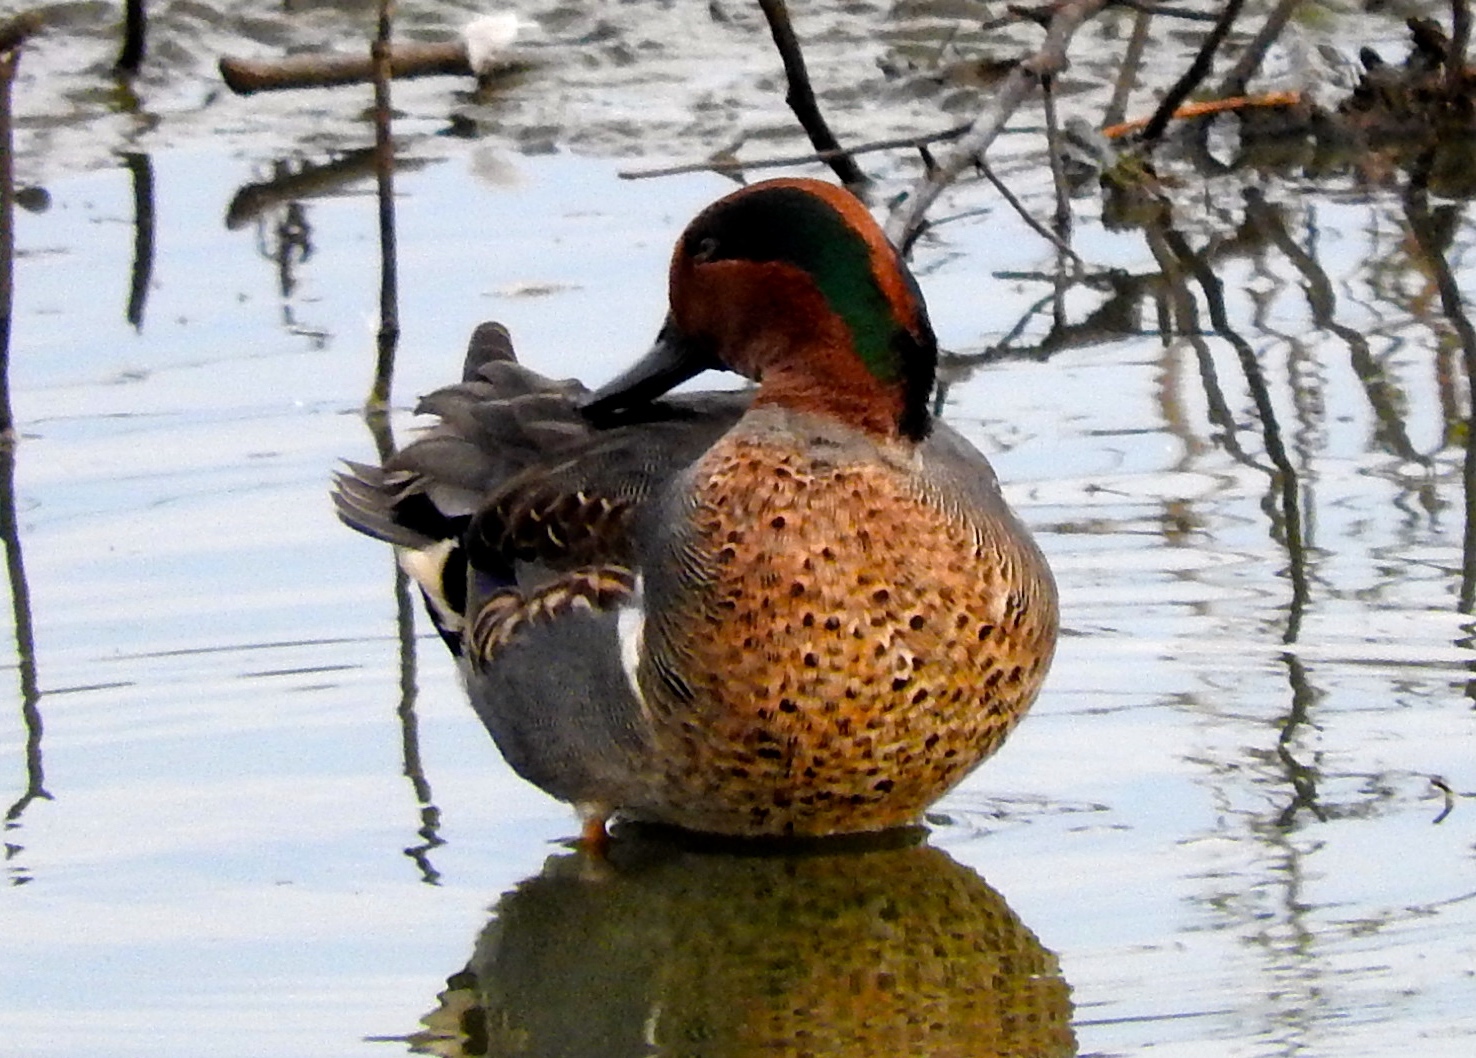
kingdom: Animalia
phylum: Chordata
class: Aves
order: Anseriformes
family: Anatidae
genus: Anas
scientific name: Anas crecca
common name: Eurasian teal
